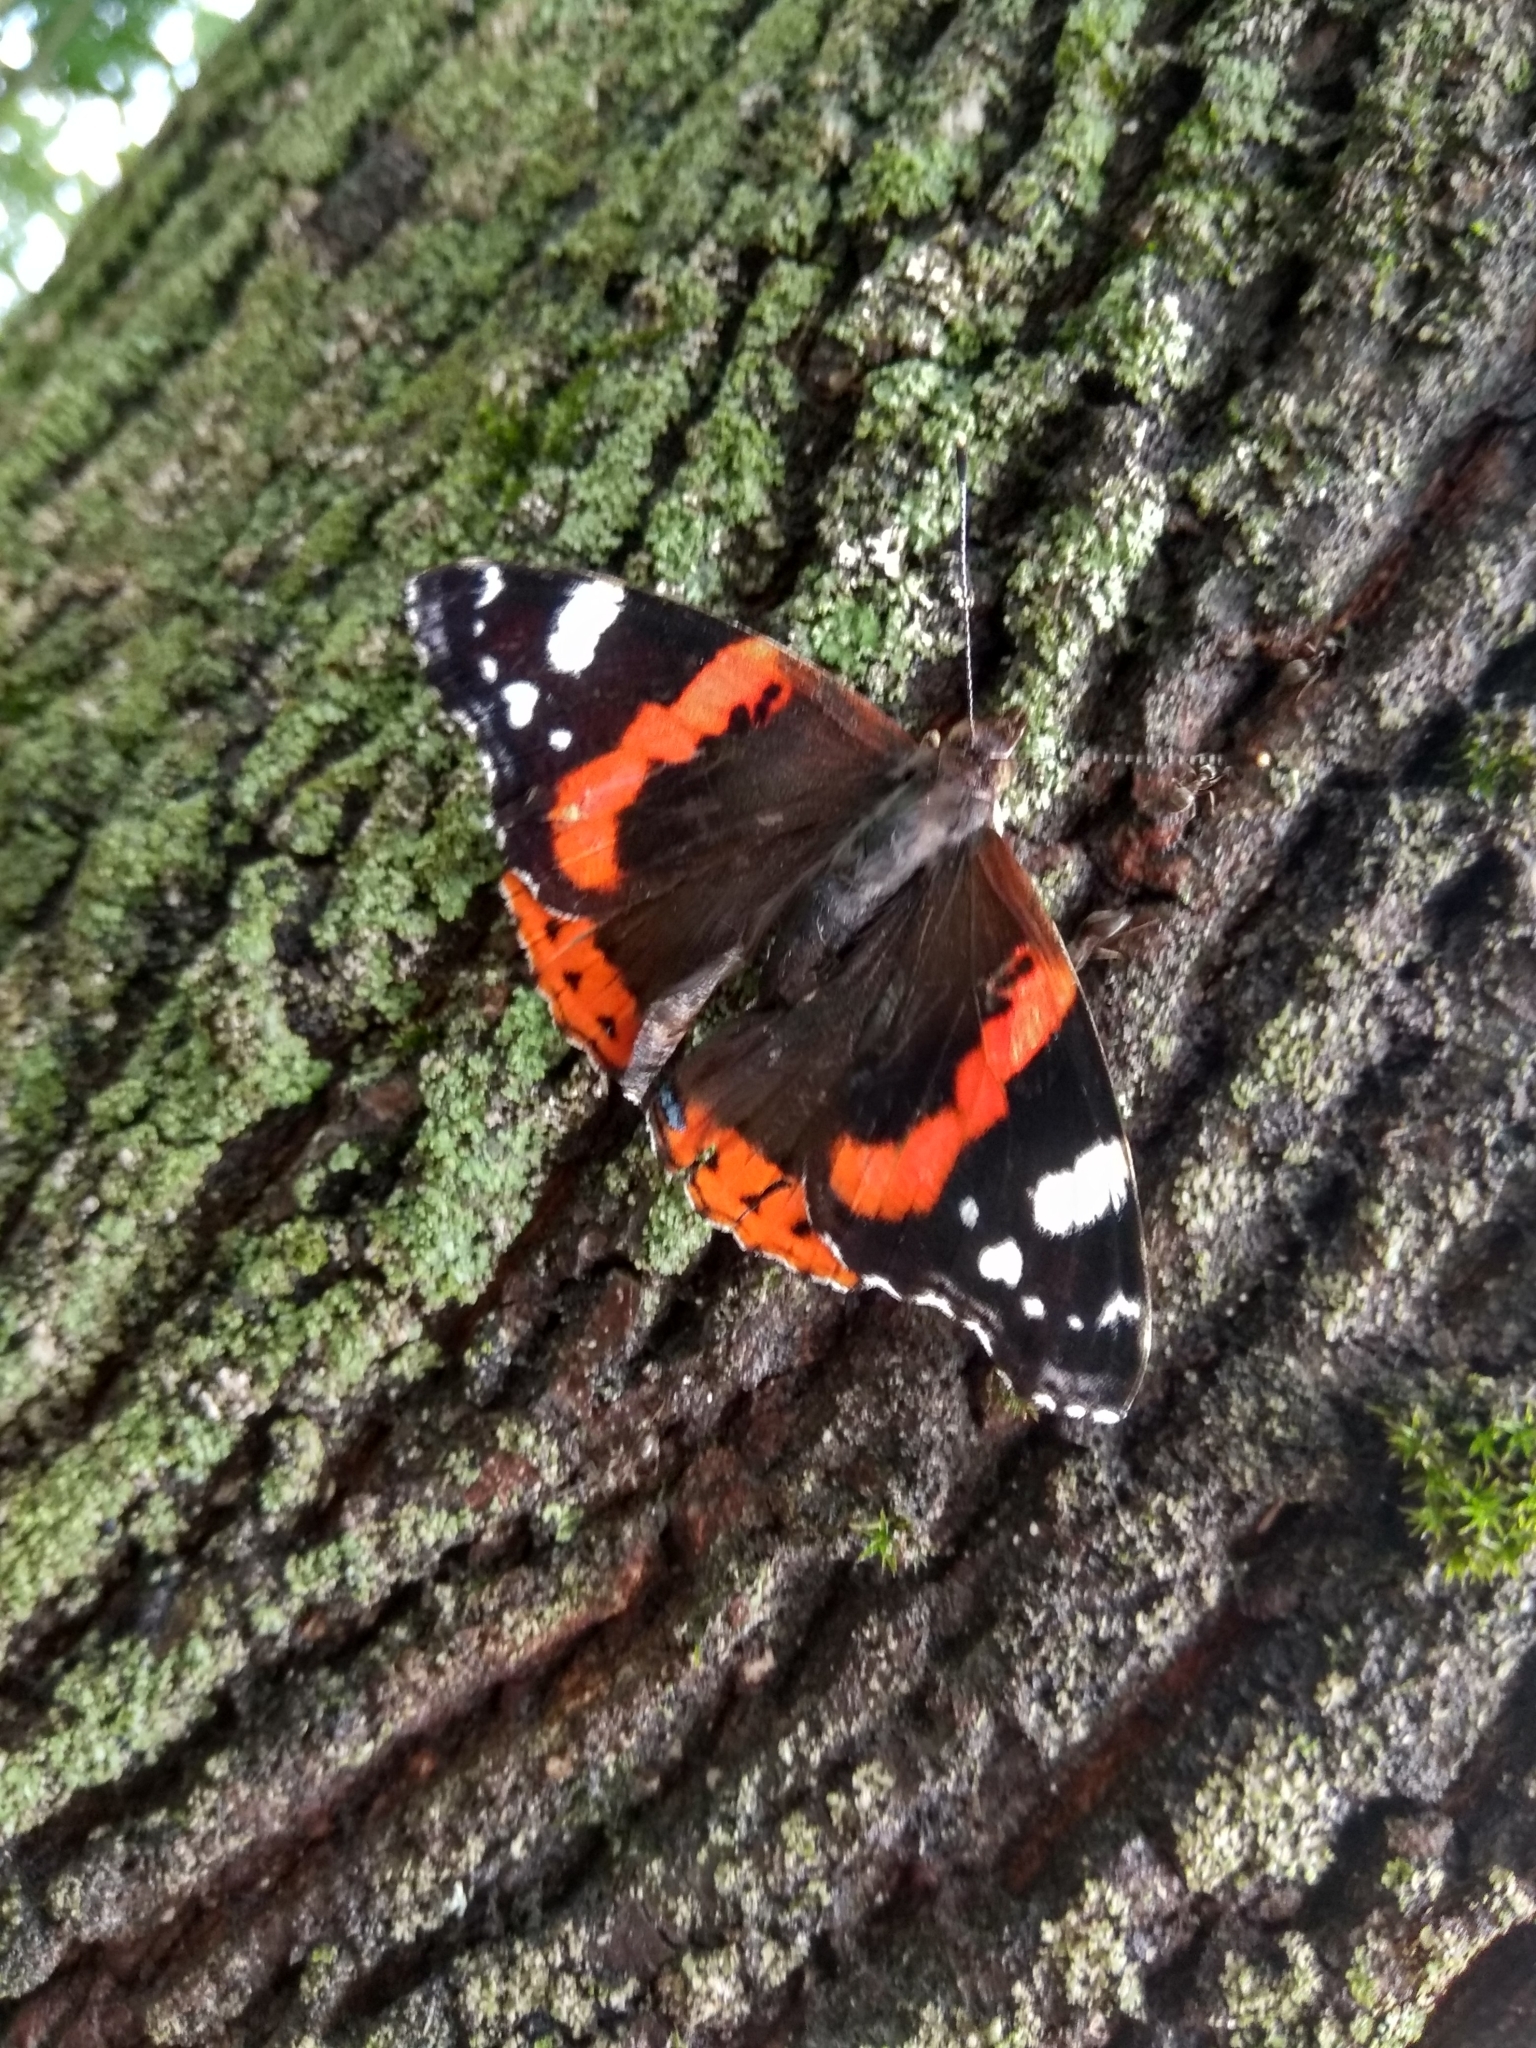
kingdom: Animalia
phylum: Arthropoda
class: Insecta
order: Lepidoptera
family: Nymphalidae
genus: Vanessa
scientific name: Vanessa atalanta
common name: Red admiral
